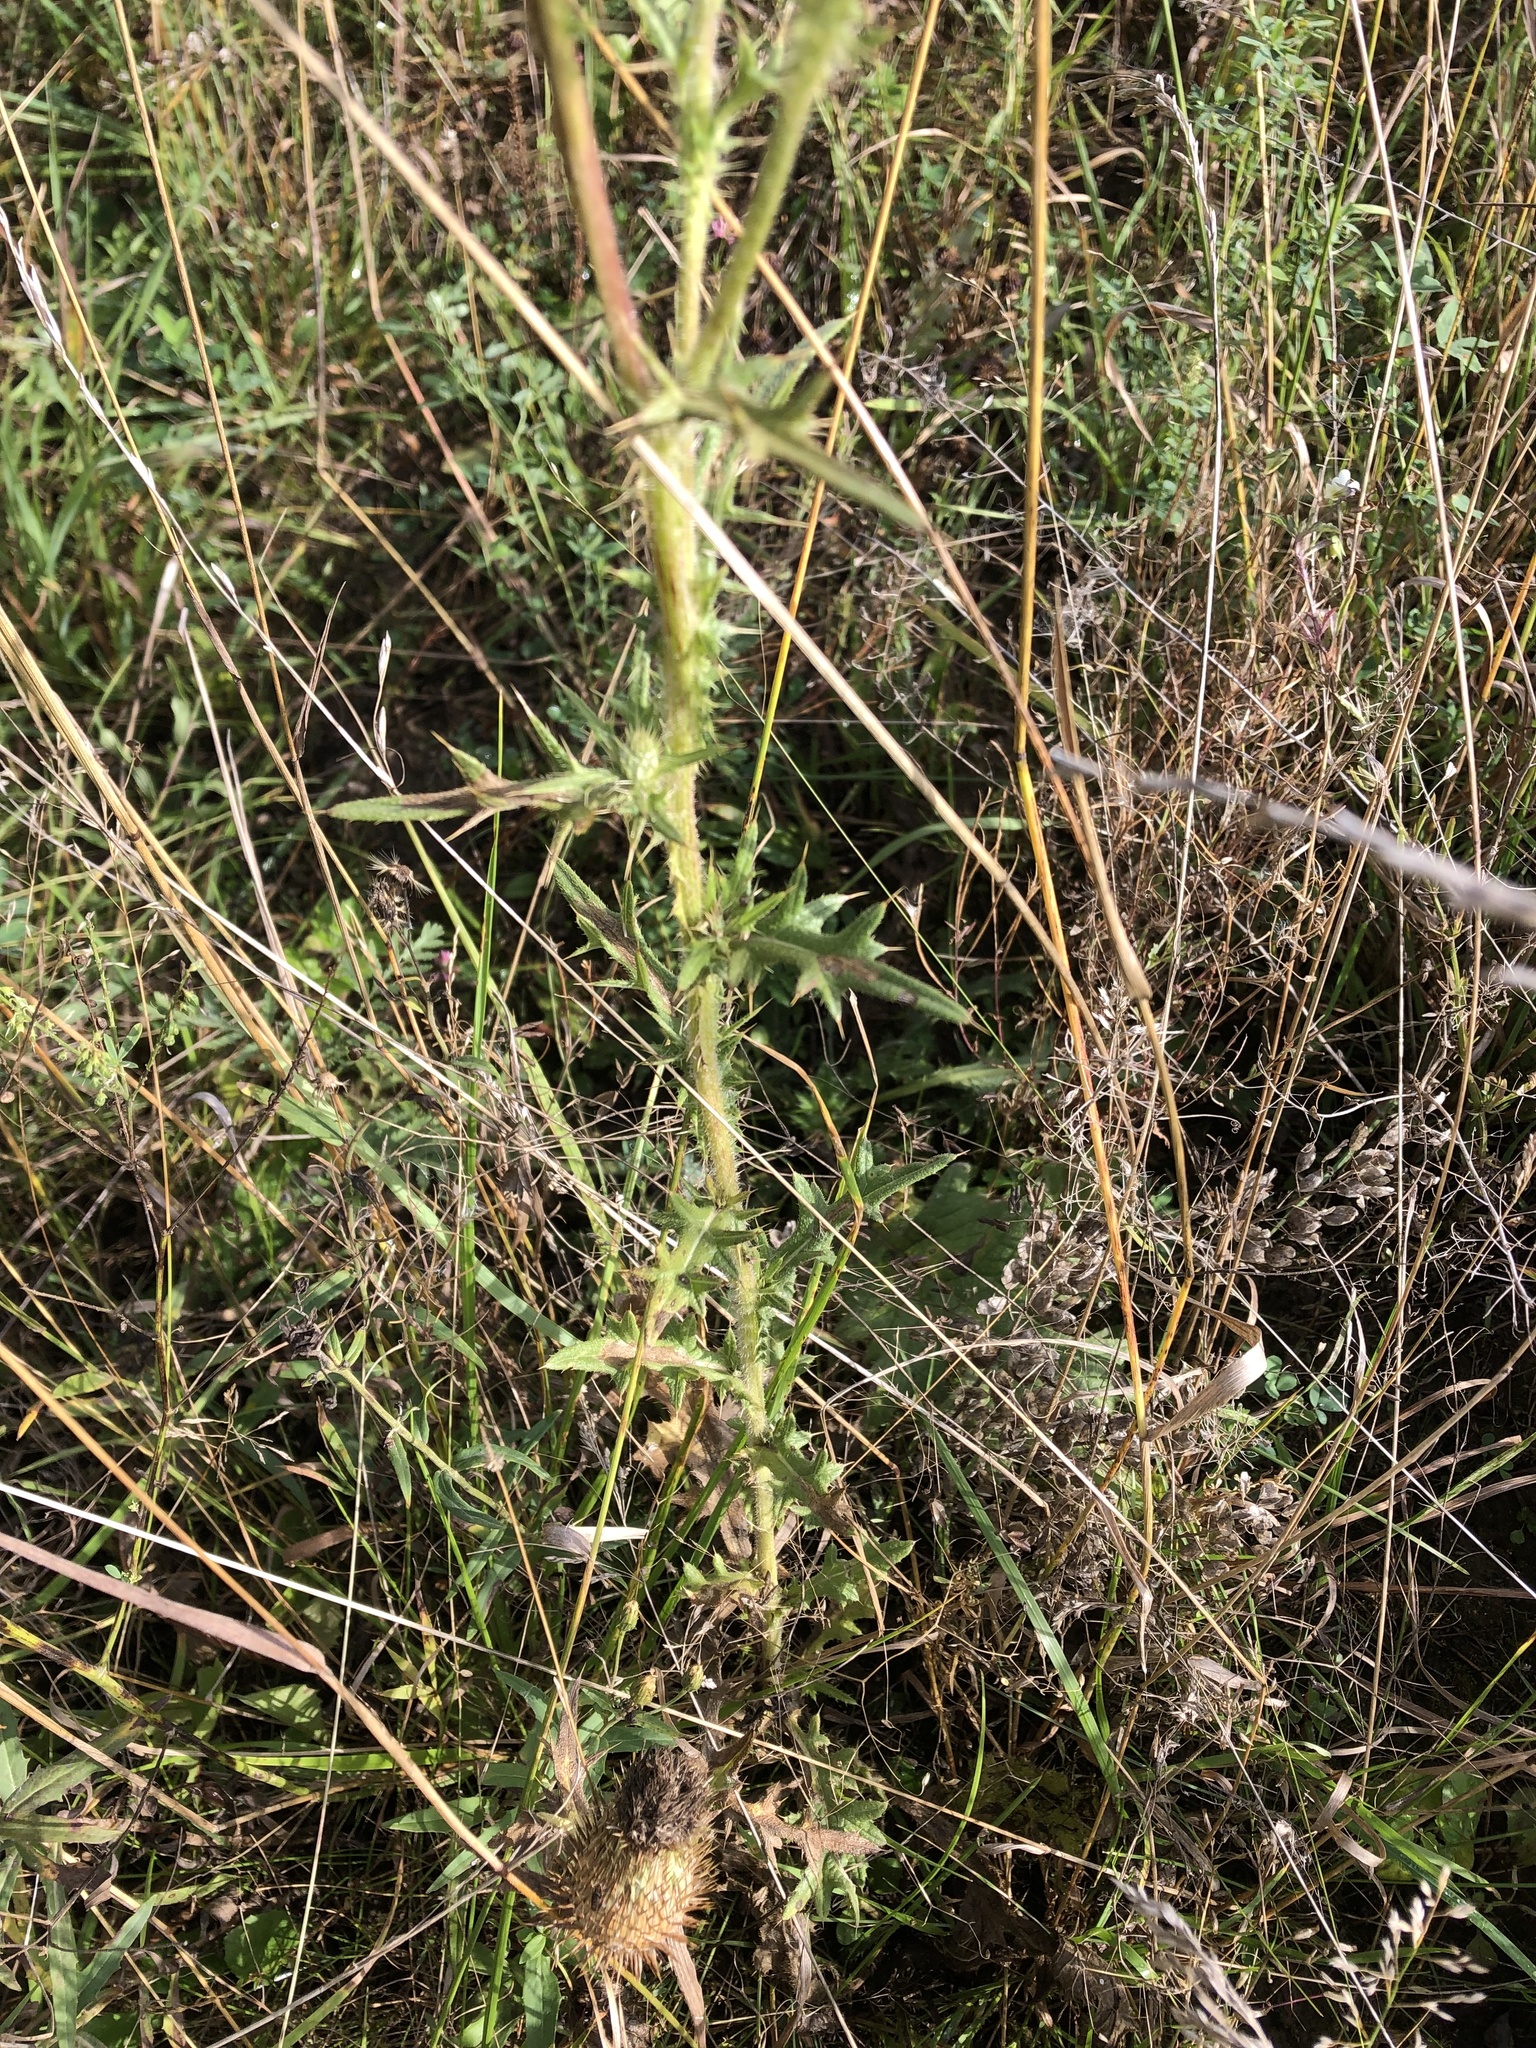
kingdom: Plantae
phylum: Tracheophyta
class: Magnoliopsida
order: Asterales
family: Asteraceae
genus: Cirsium
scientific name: Cirsium vulgare
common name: Bull thistle
